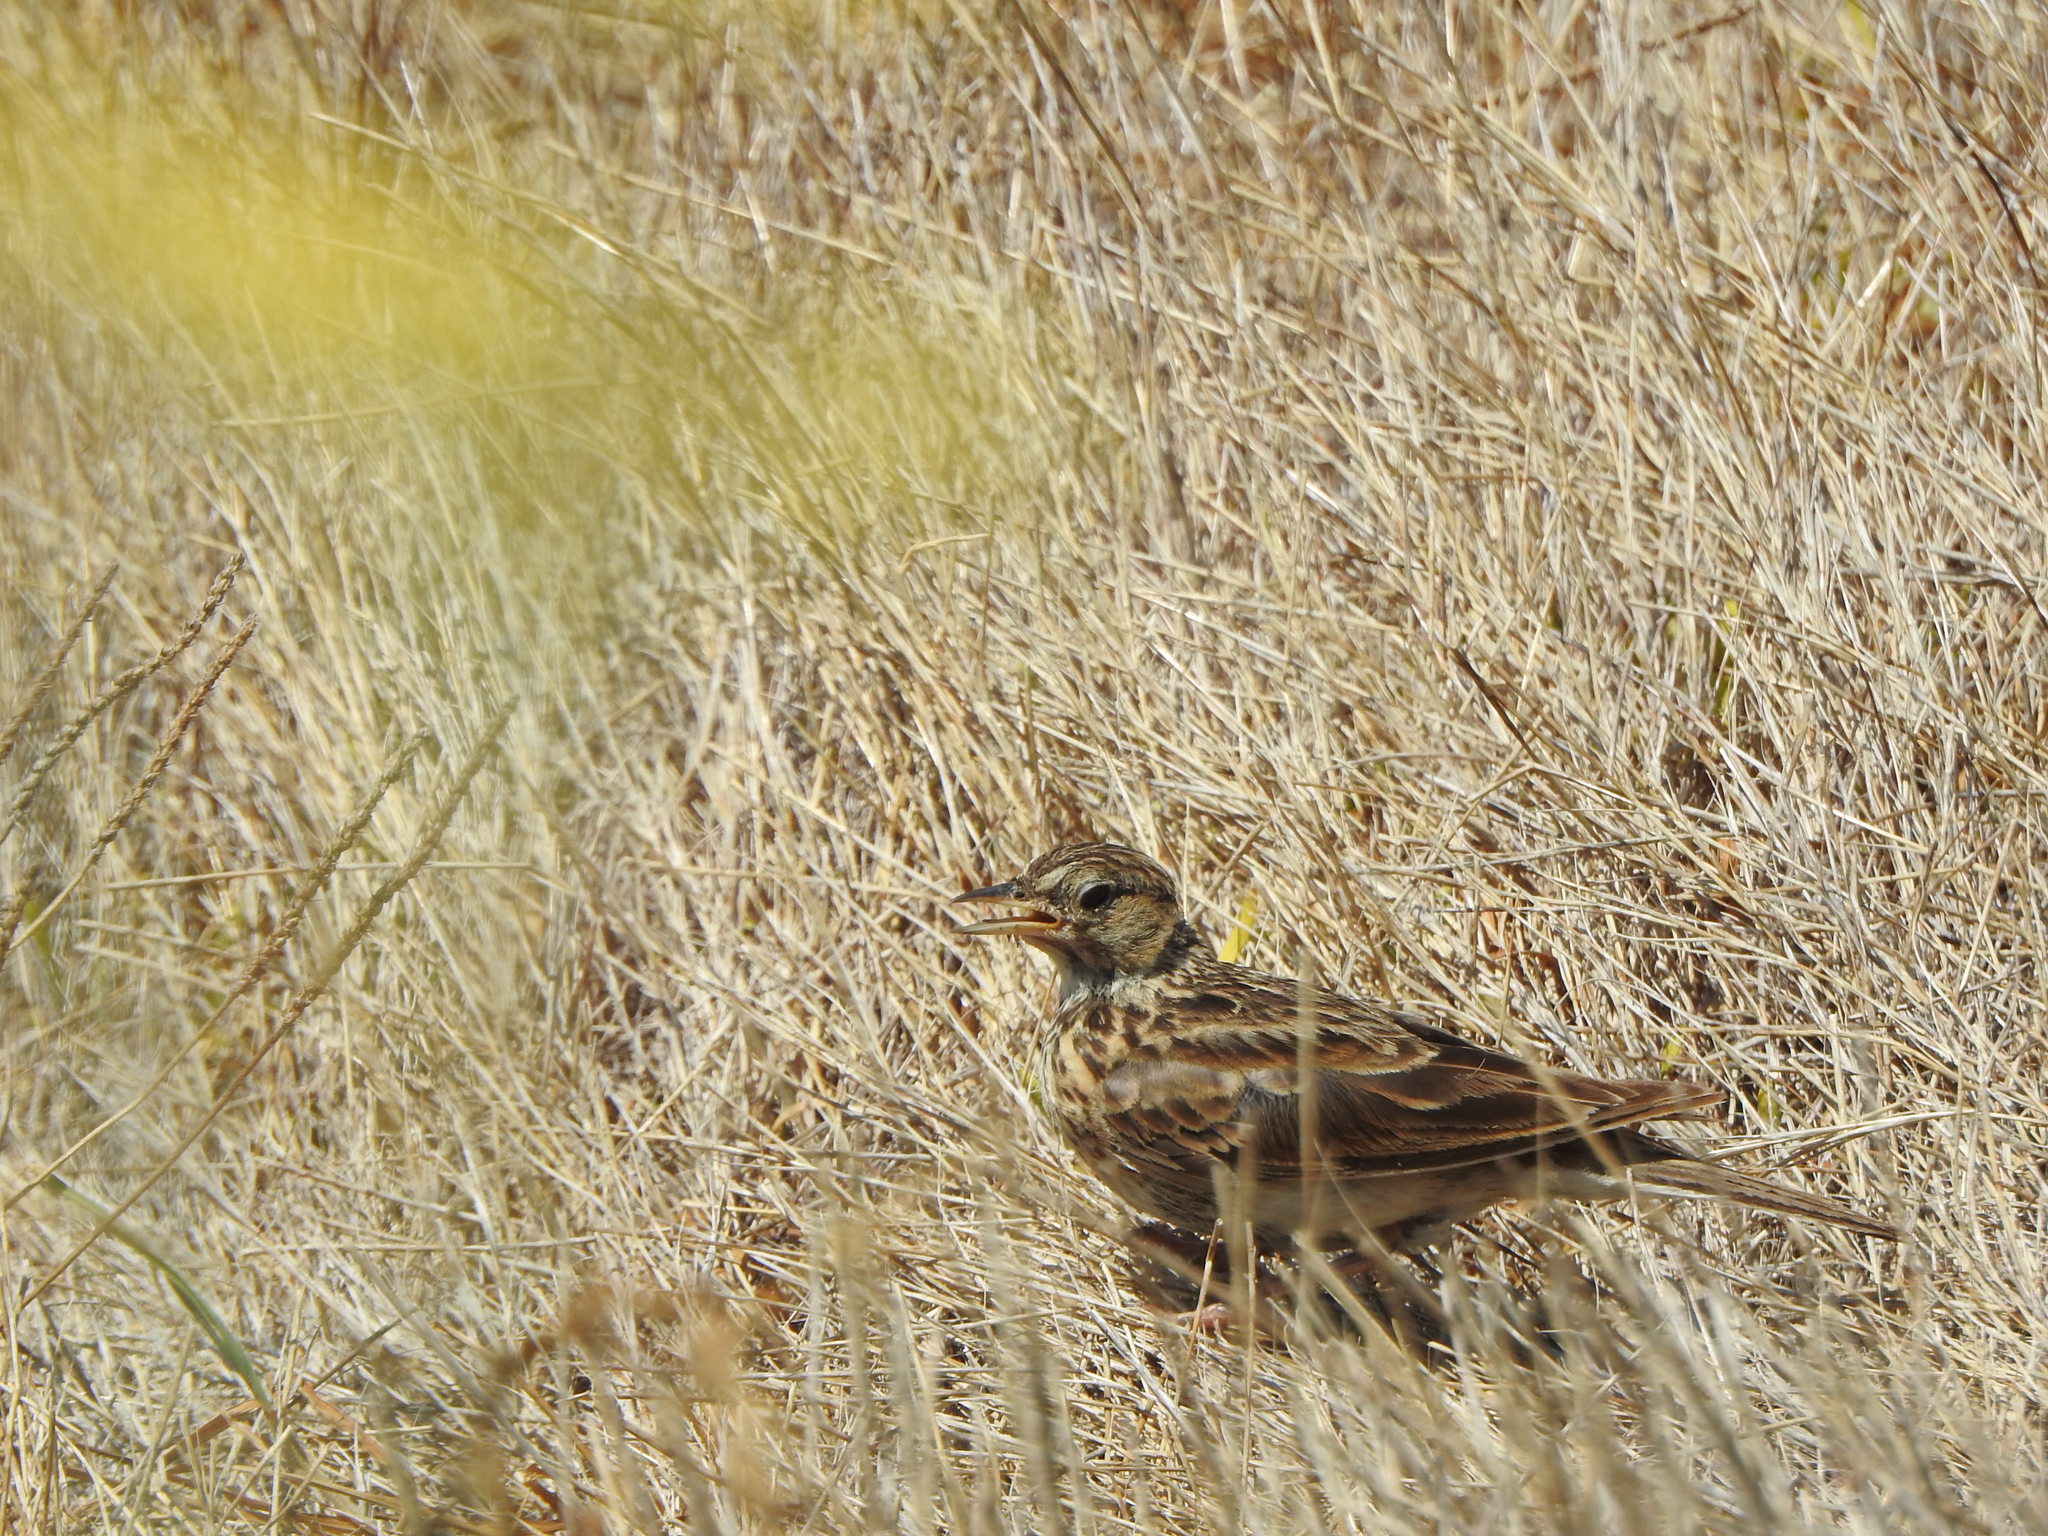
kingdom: Animalia
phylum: Chordata
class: Aves
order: Passeriformes
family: Alaudidae
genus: Alauda
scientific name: Alauda arvensis
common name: Eurasian skylark
